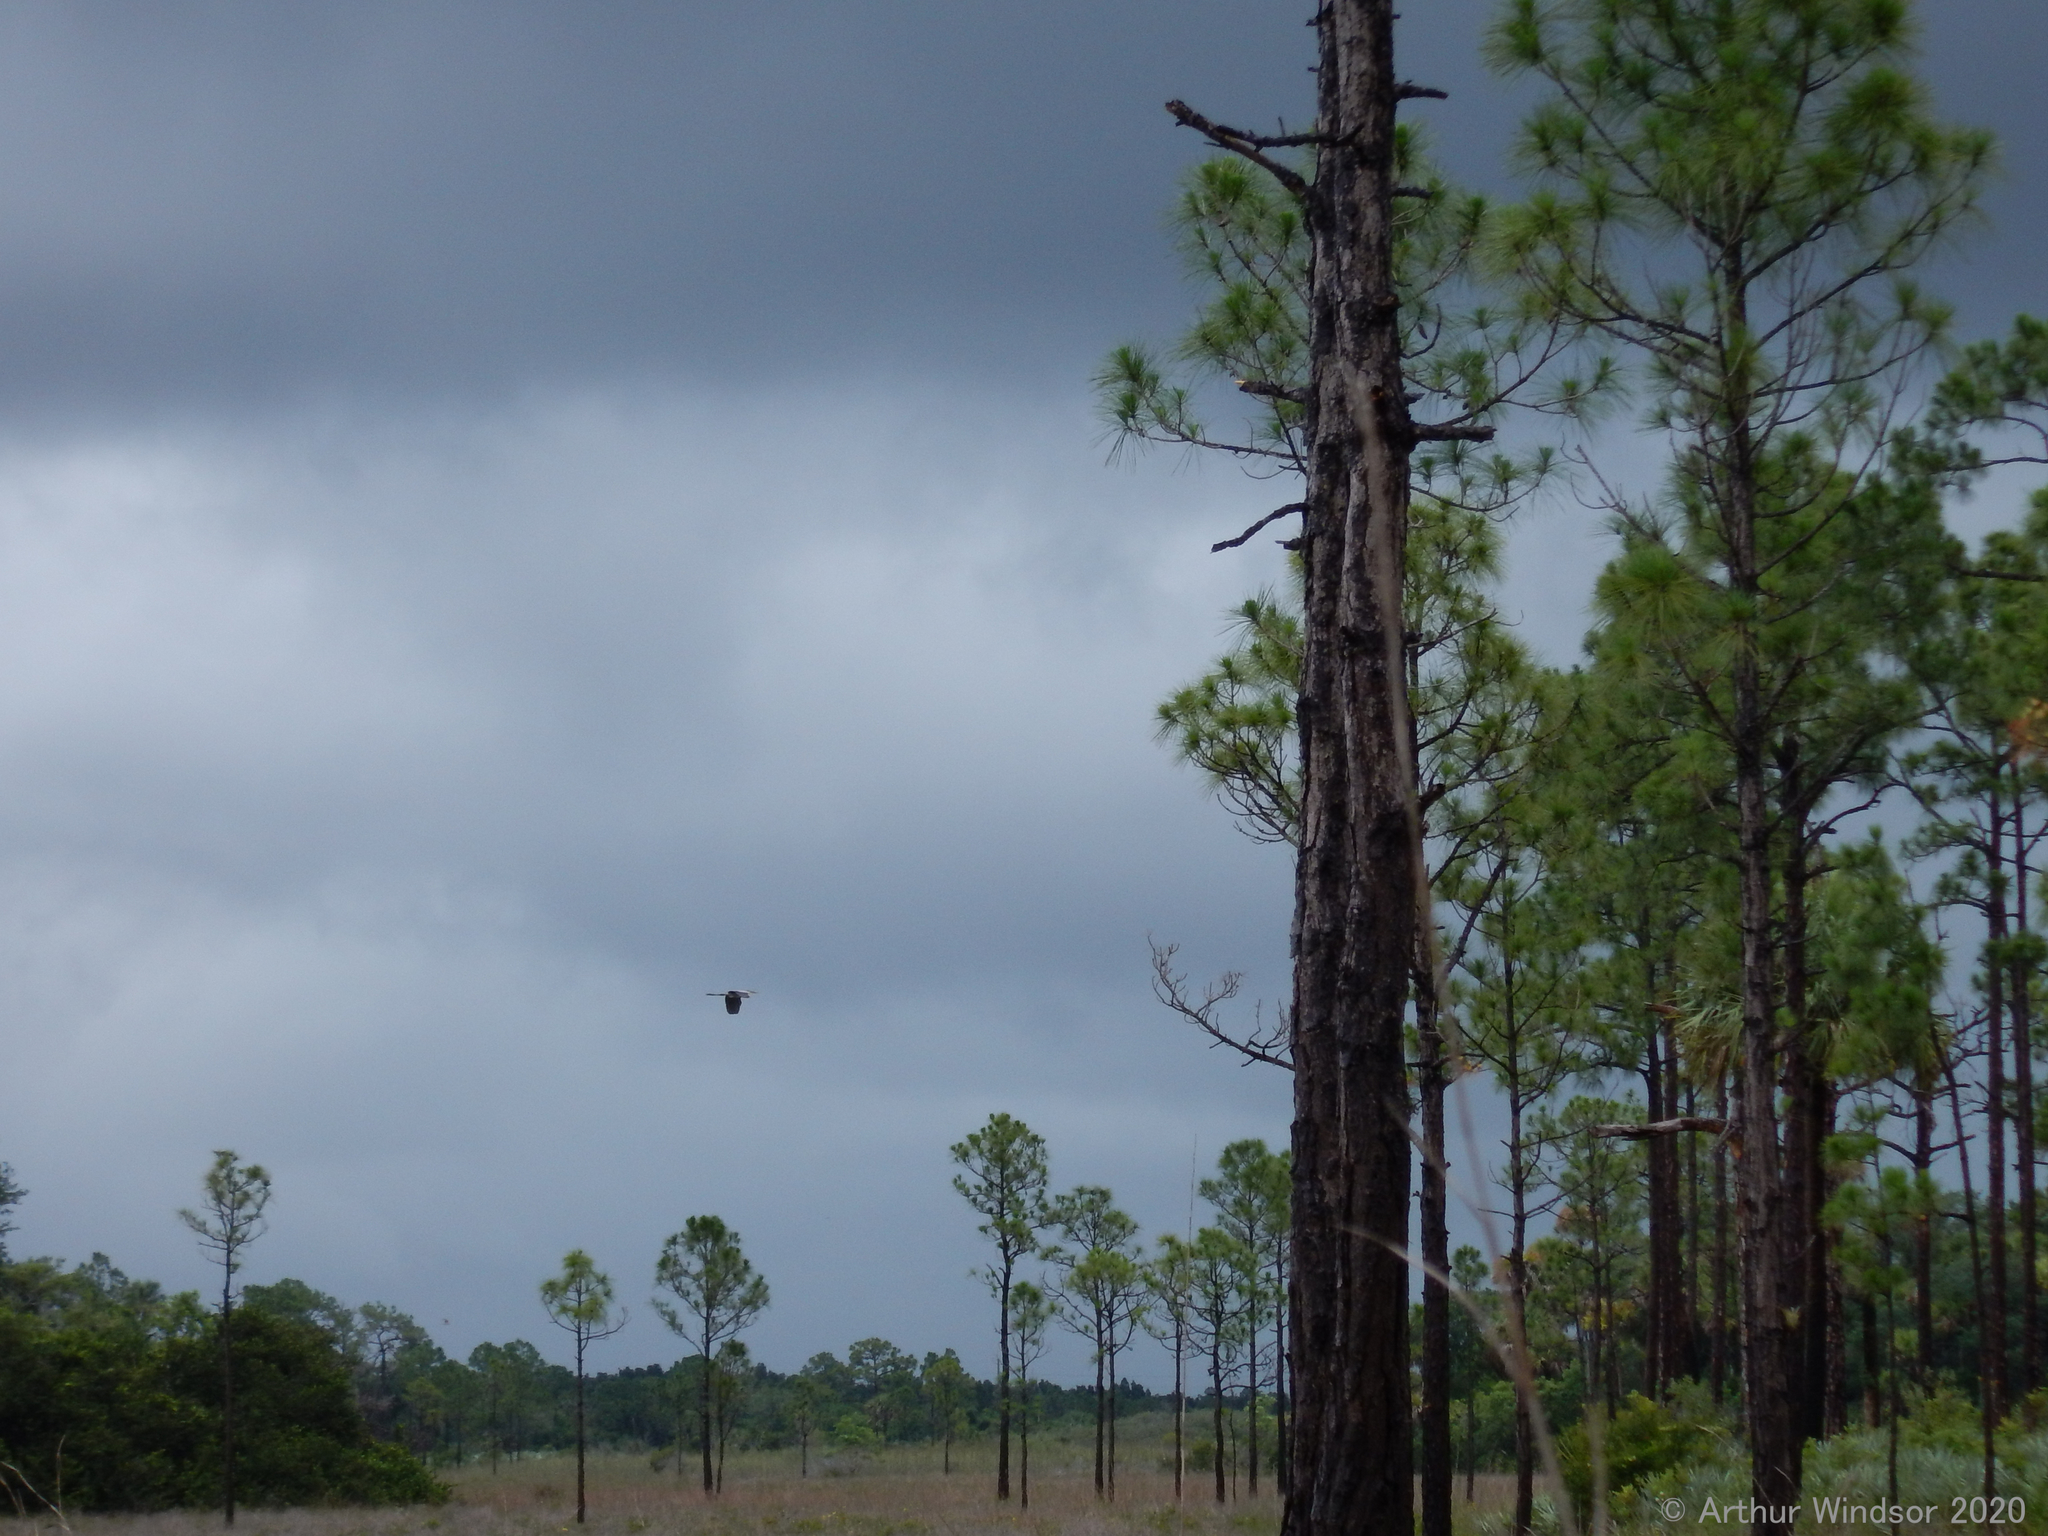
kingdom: Animalia
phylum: Chordata
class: Aves
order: Pelecaniformes
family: Ardeidae
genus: Ardea
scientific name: Ardea herodias
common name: Great blue heron
